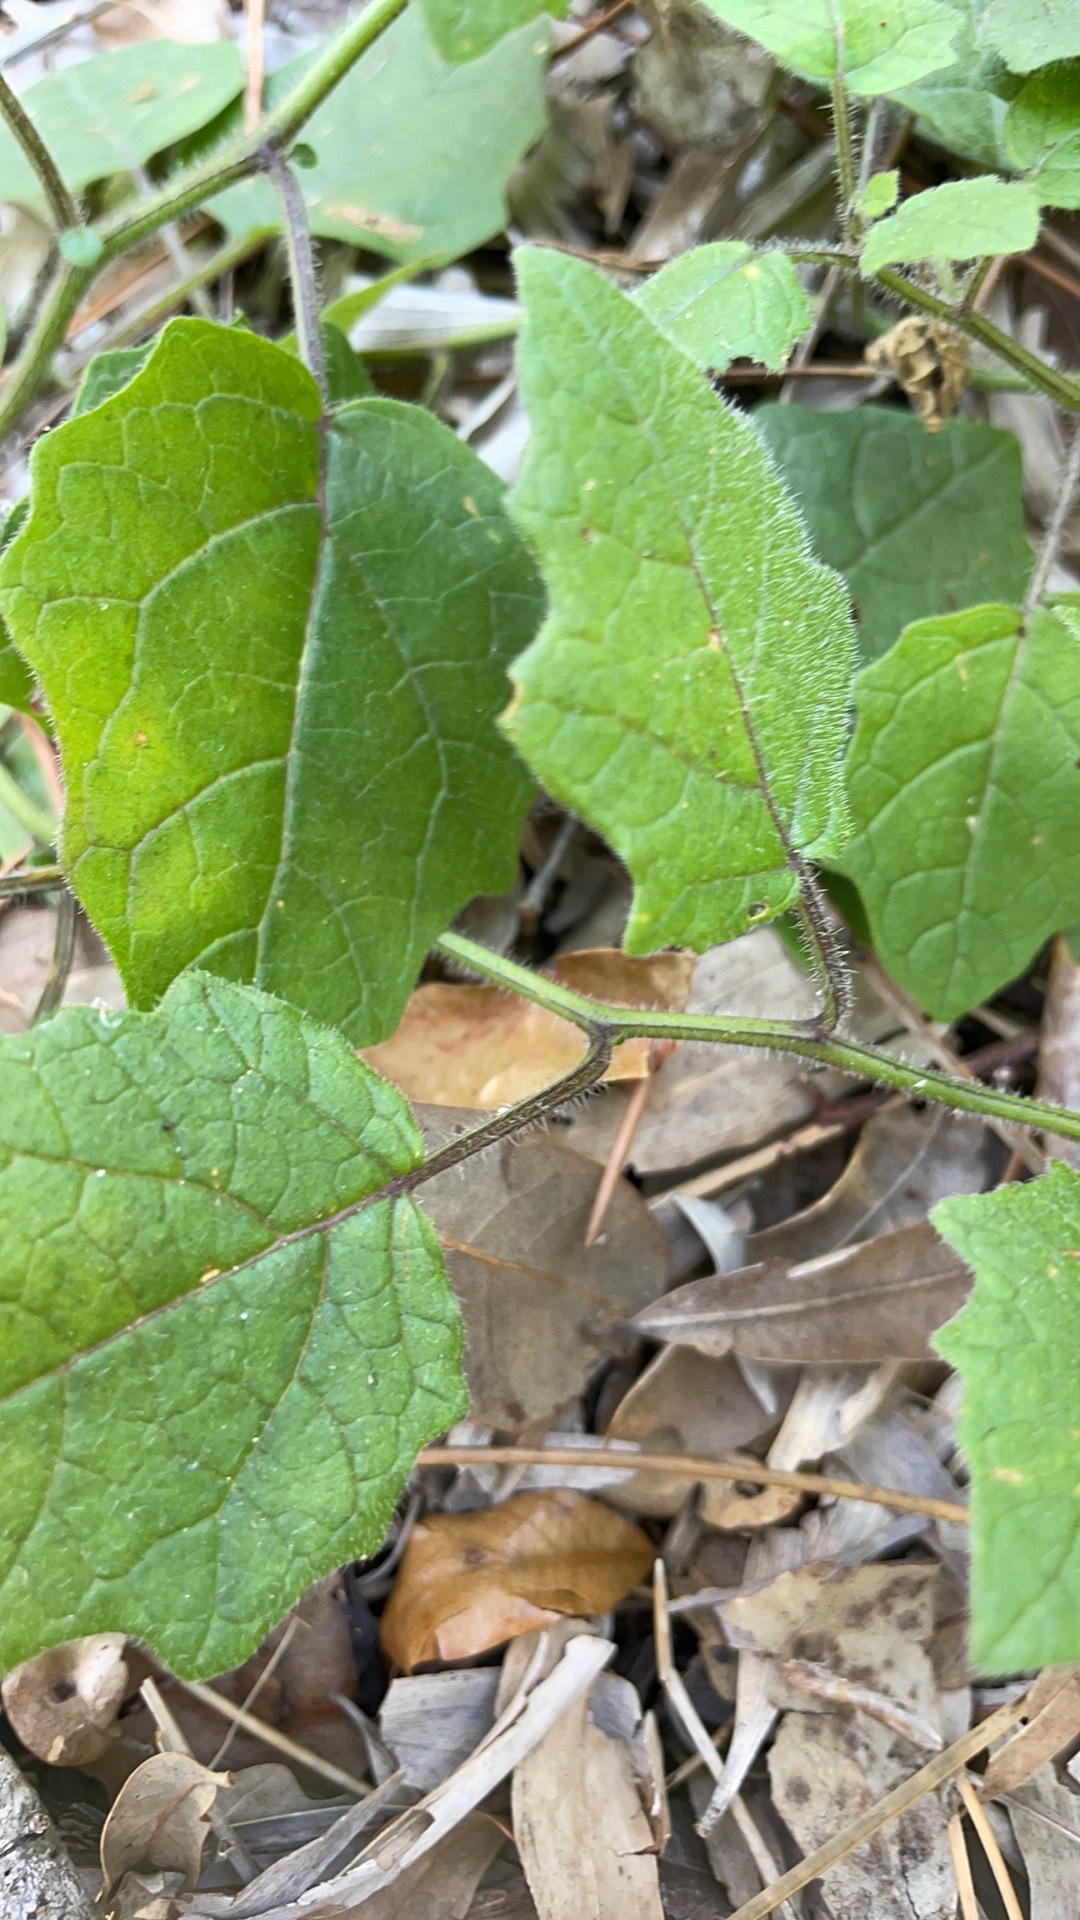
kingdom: Plantae
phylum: Tracheophyta
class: Magnoliopsida
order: Solanales
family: Solanaceae
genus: Physalis
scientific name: Physalis arenicola
